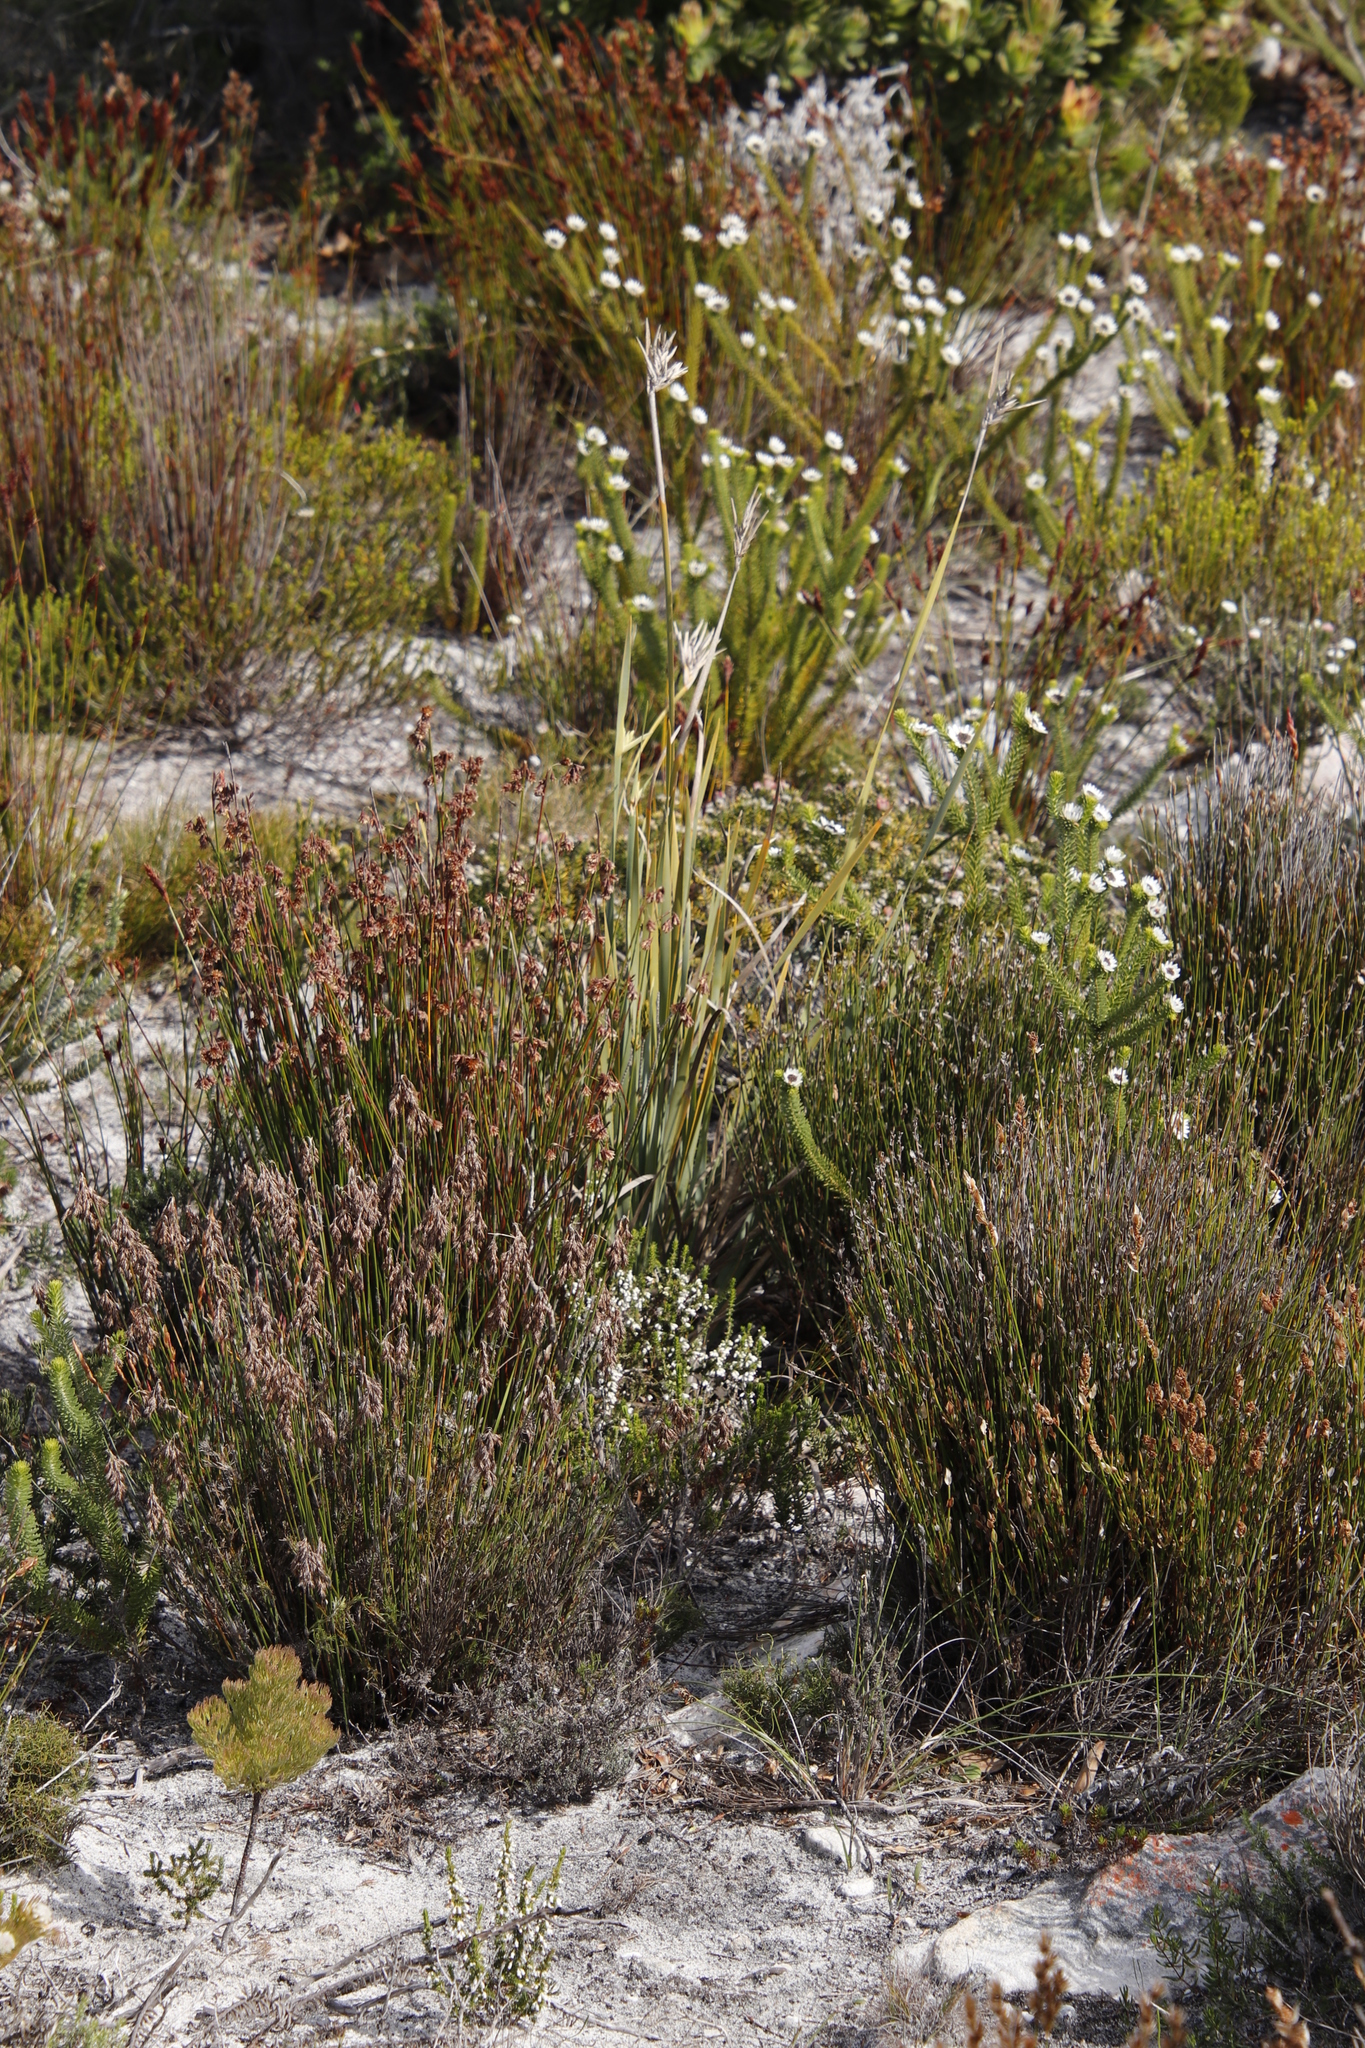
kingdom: Plantae
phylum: Tracheophyta
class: Liliopsida
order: Asparagales
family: Iridaceae
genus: Bobartia
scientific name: Bobartia gladiata
